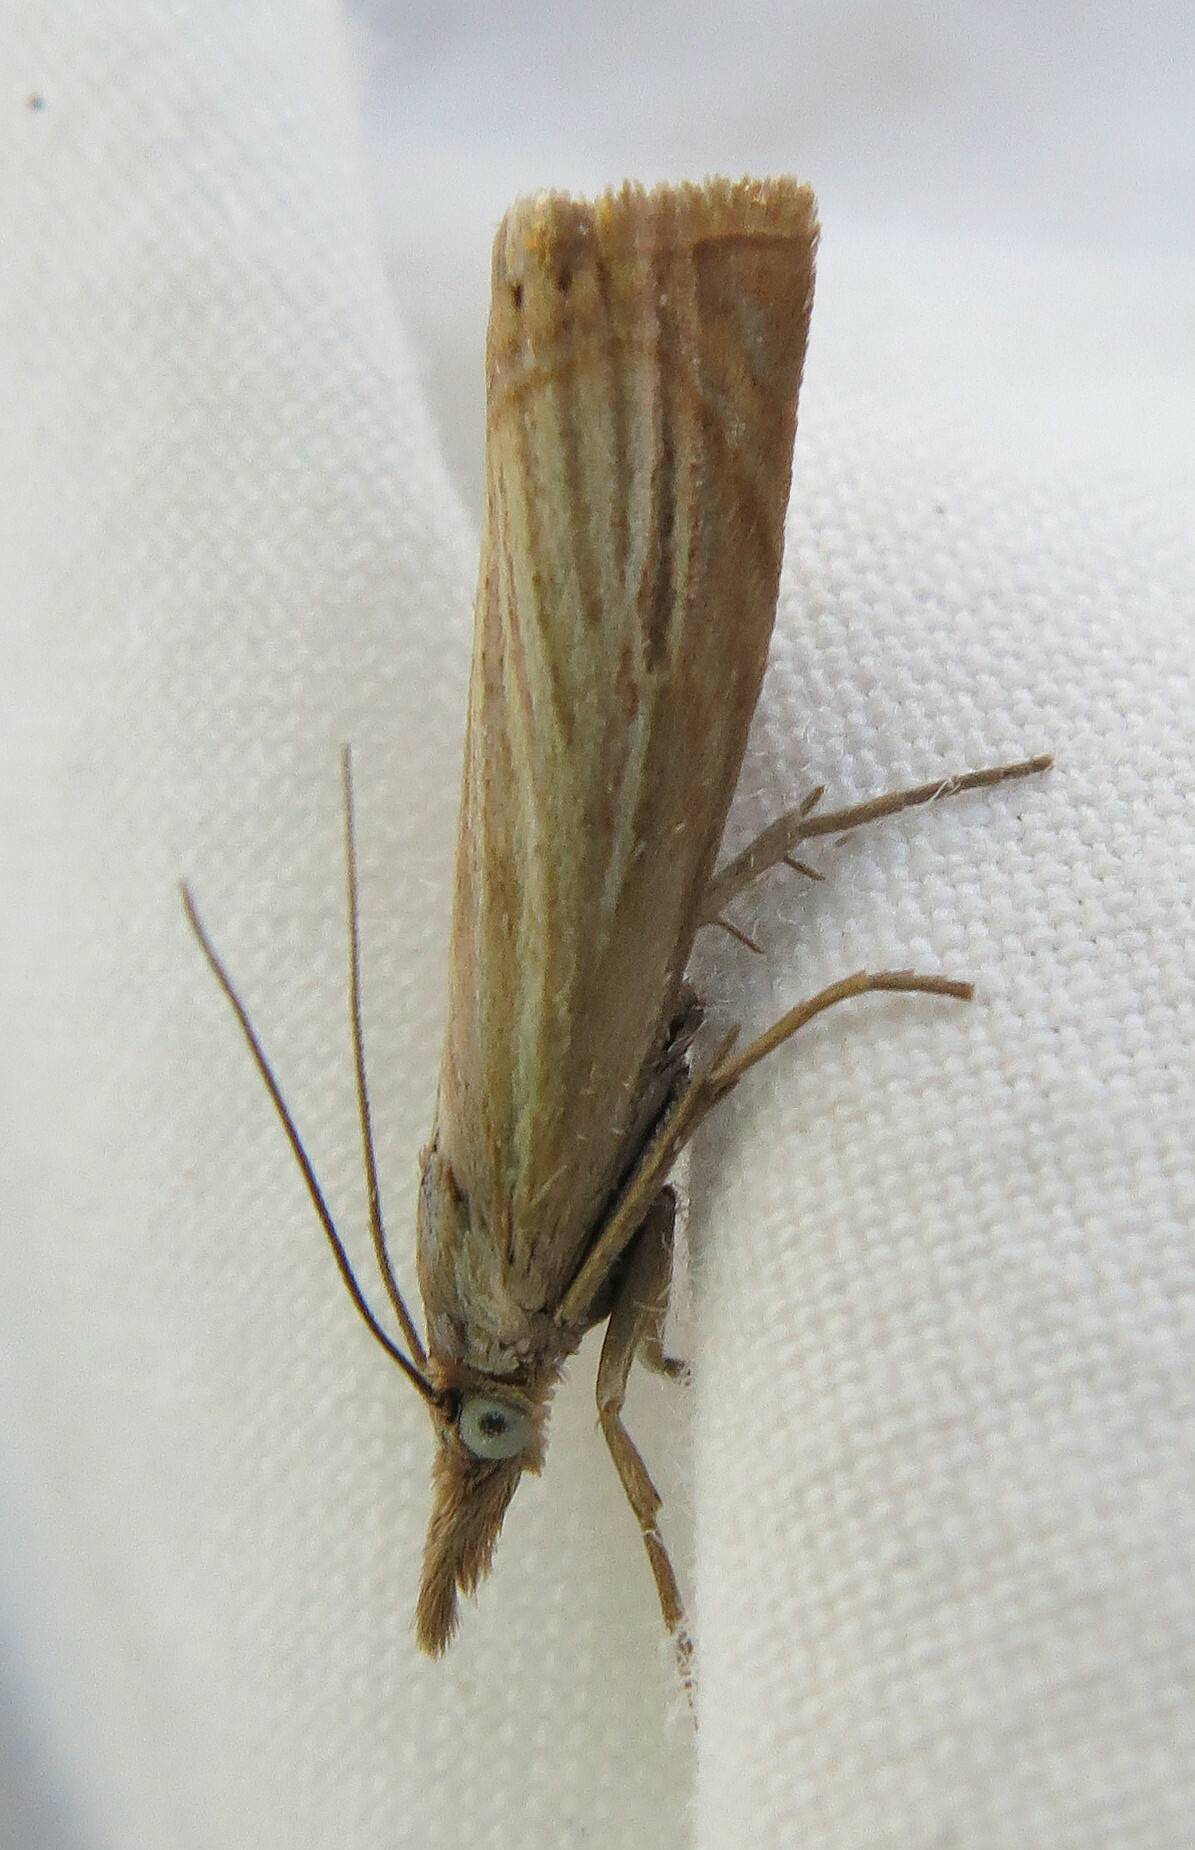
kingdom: Animalia
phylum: Arthropoda
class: Insecta
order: Lepidoptera
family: Crambidae
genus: Chrysoteuchia
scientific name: Chrysoteuchia culmella
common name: Garden grass-veneer
